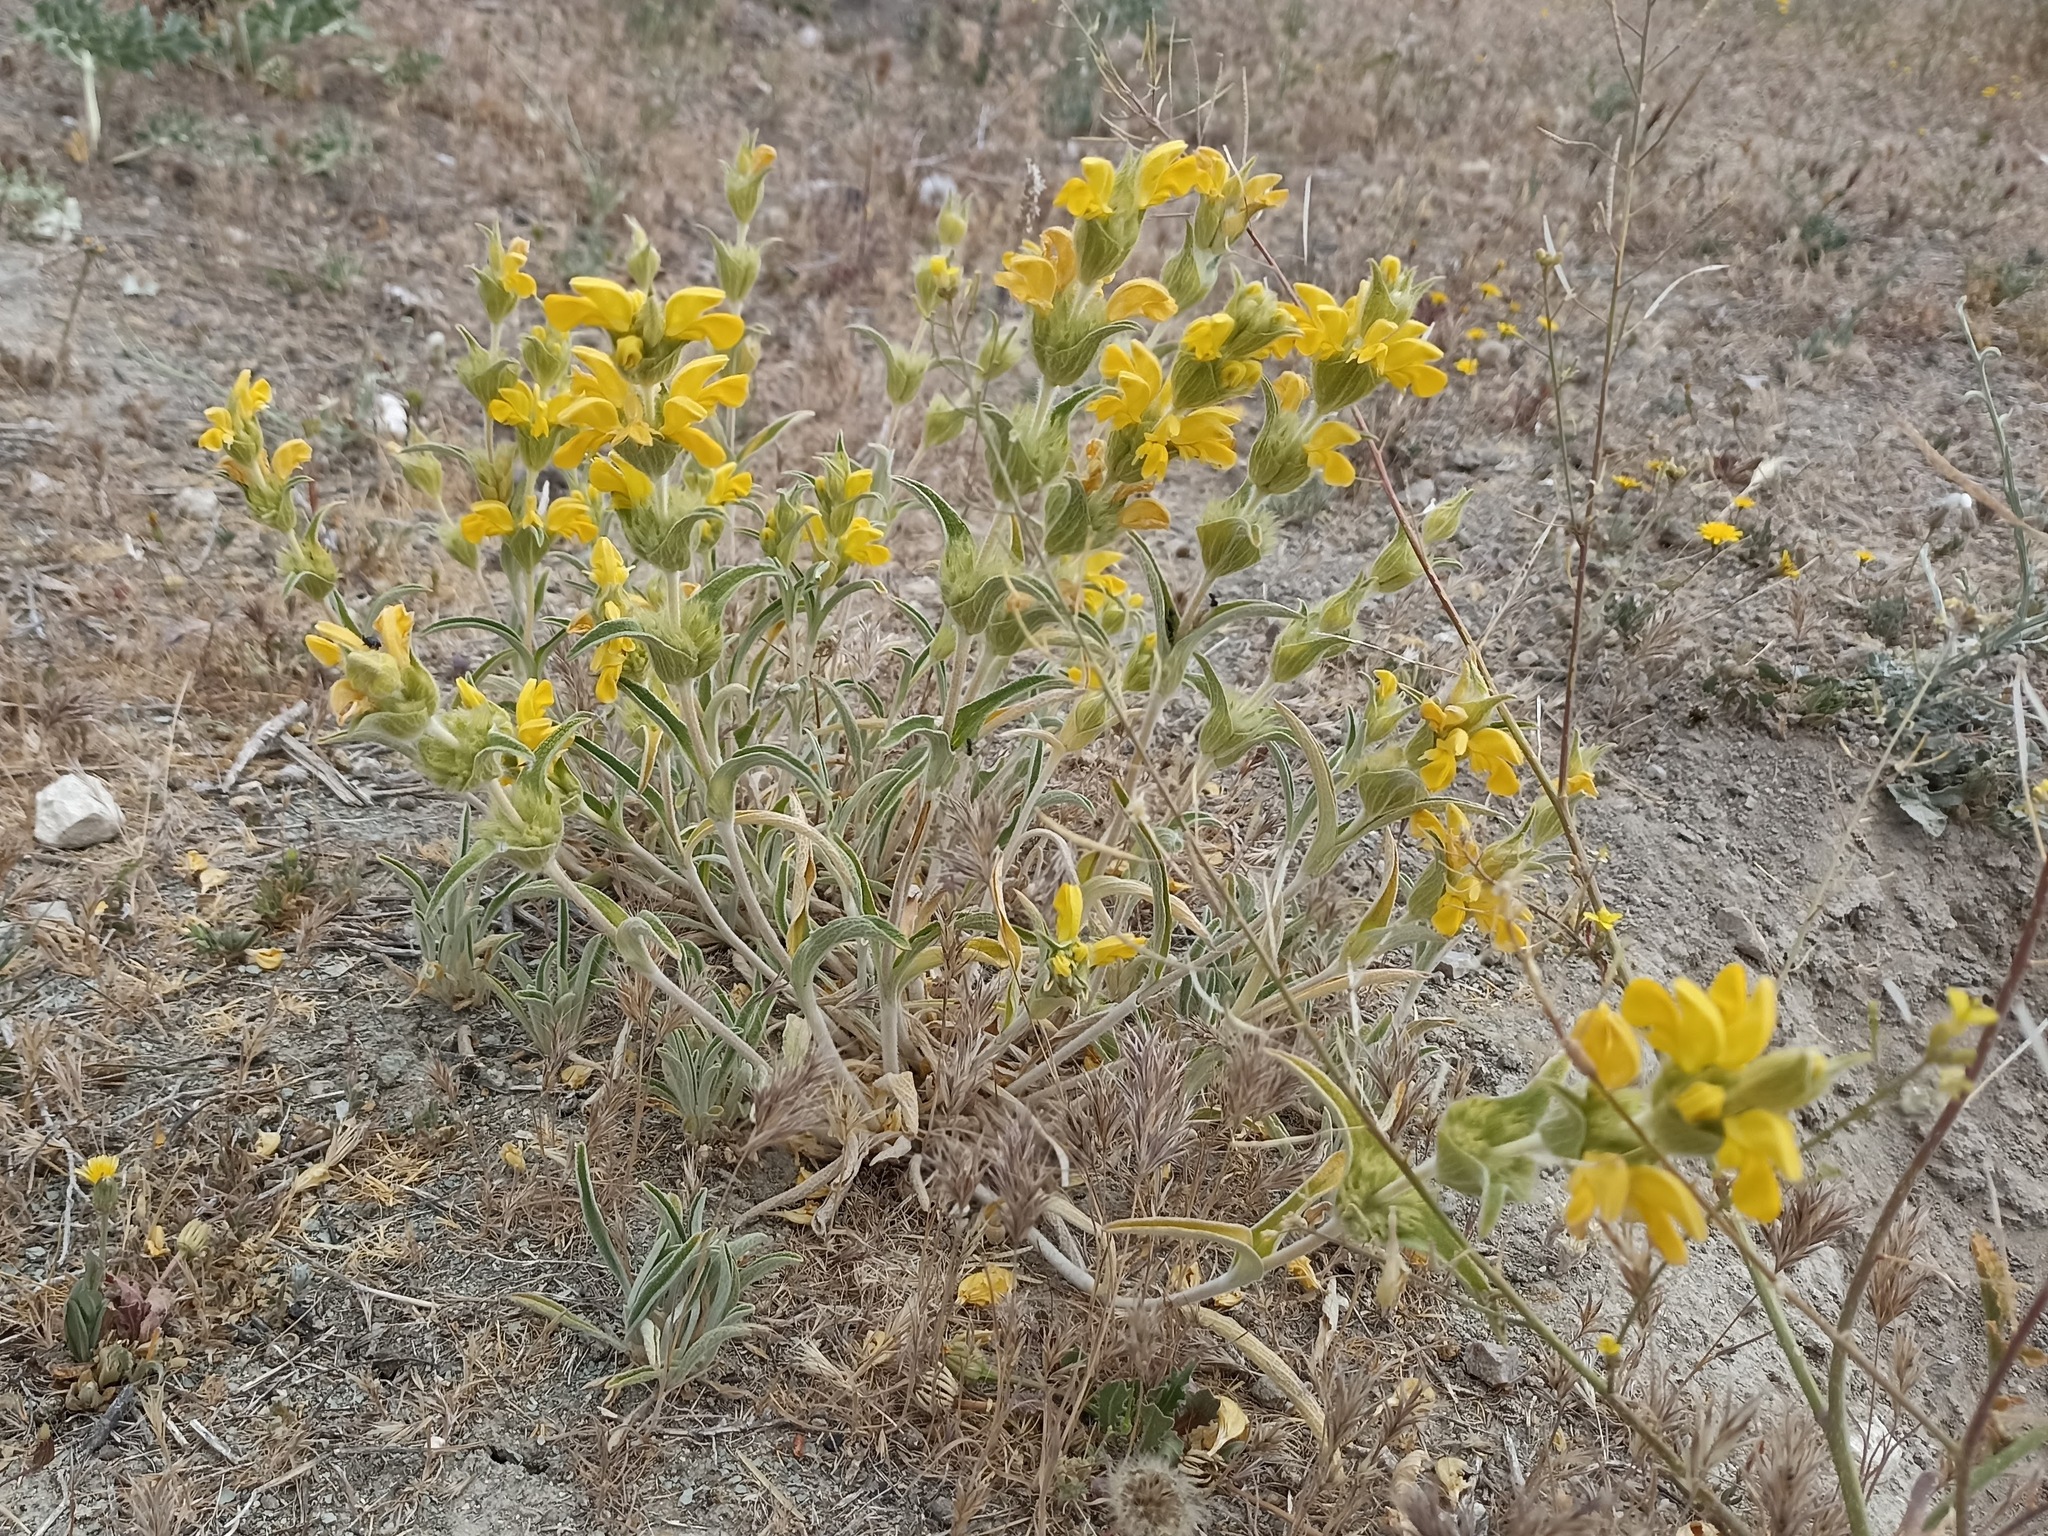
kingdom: Plantae
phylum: Tracheophyta
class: Magnoliopsida
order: Lamiales
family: Lamiaceae
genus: Phlomis
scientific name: Phlomis lychnitis
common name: Lampwickplant
